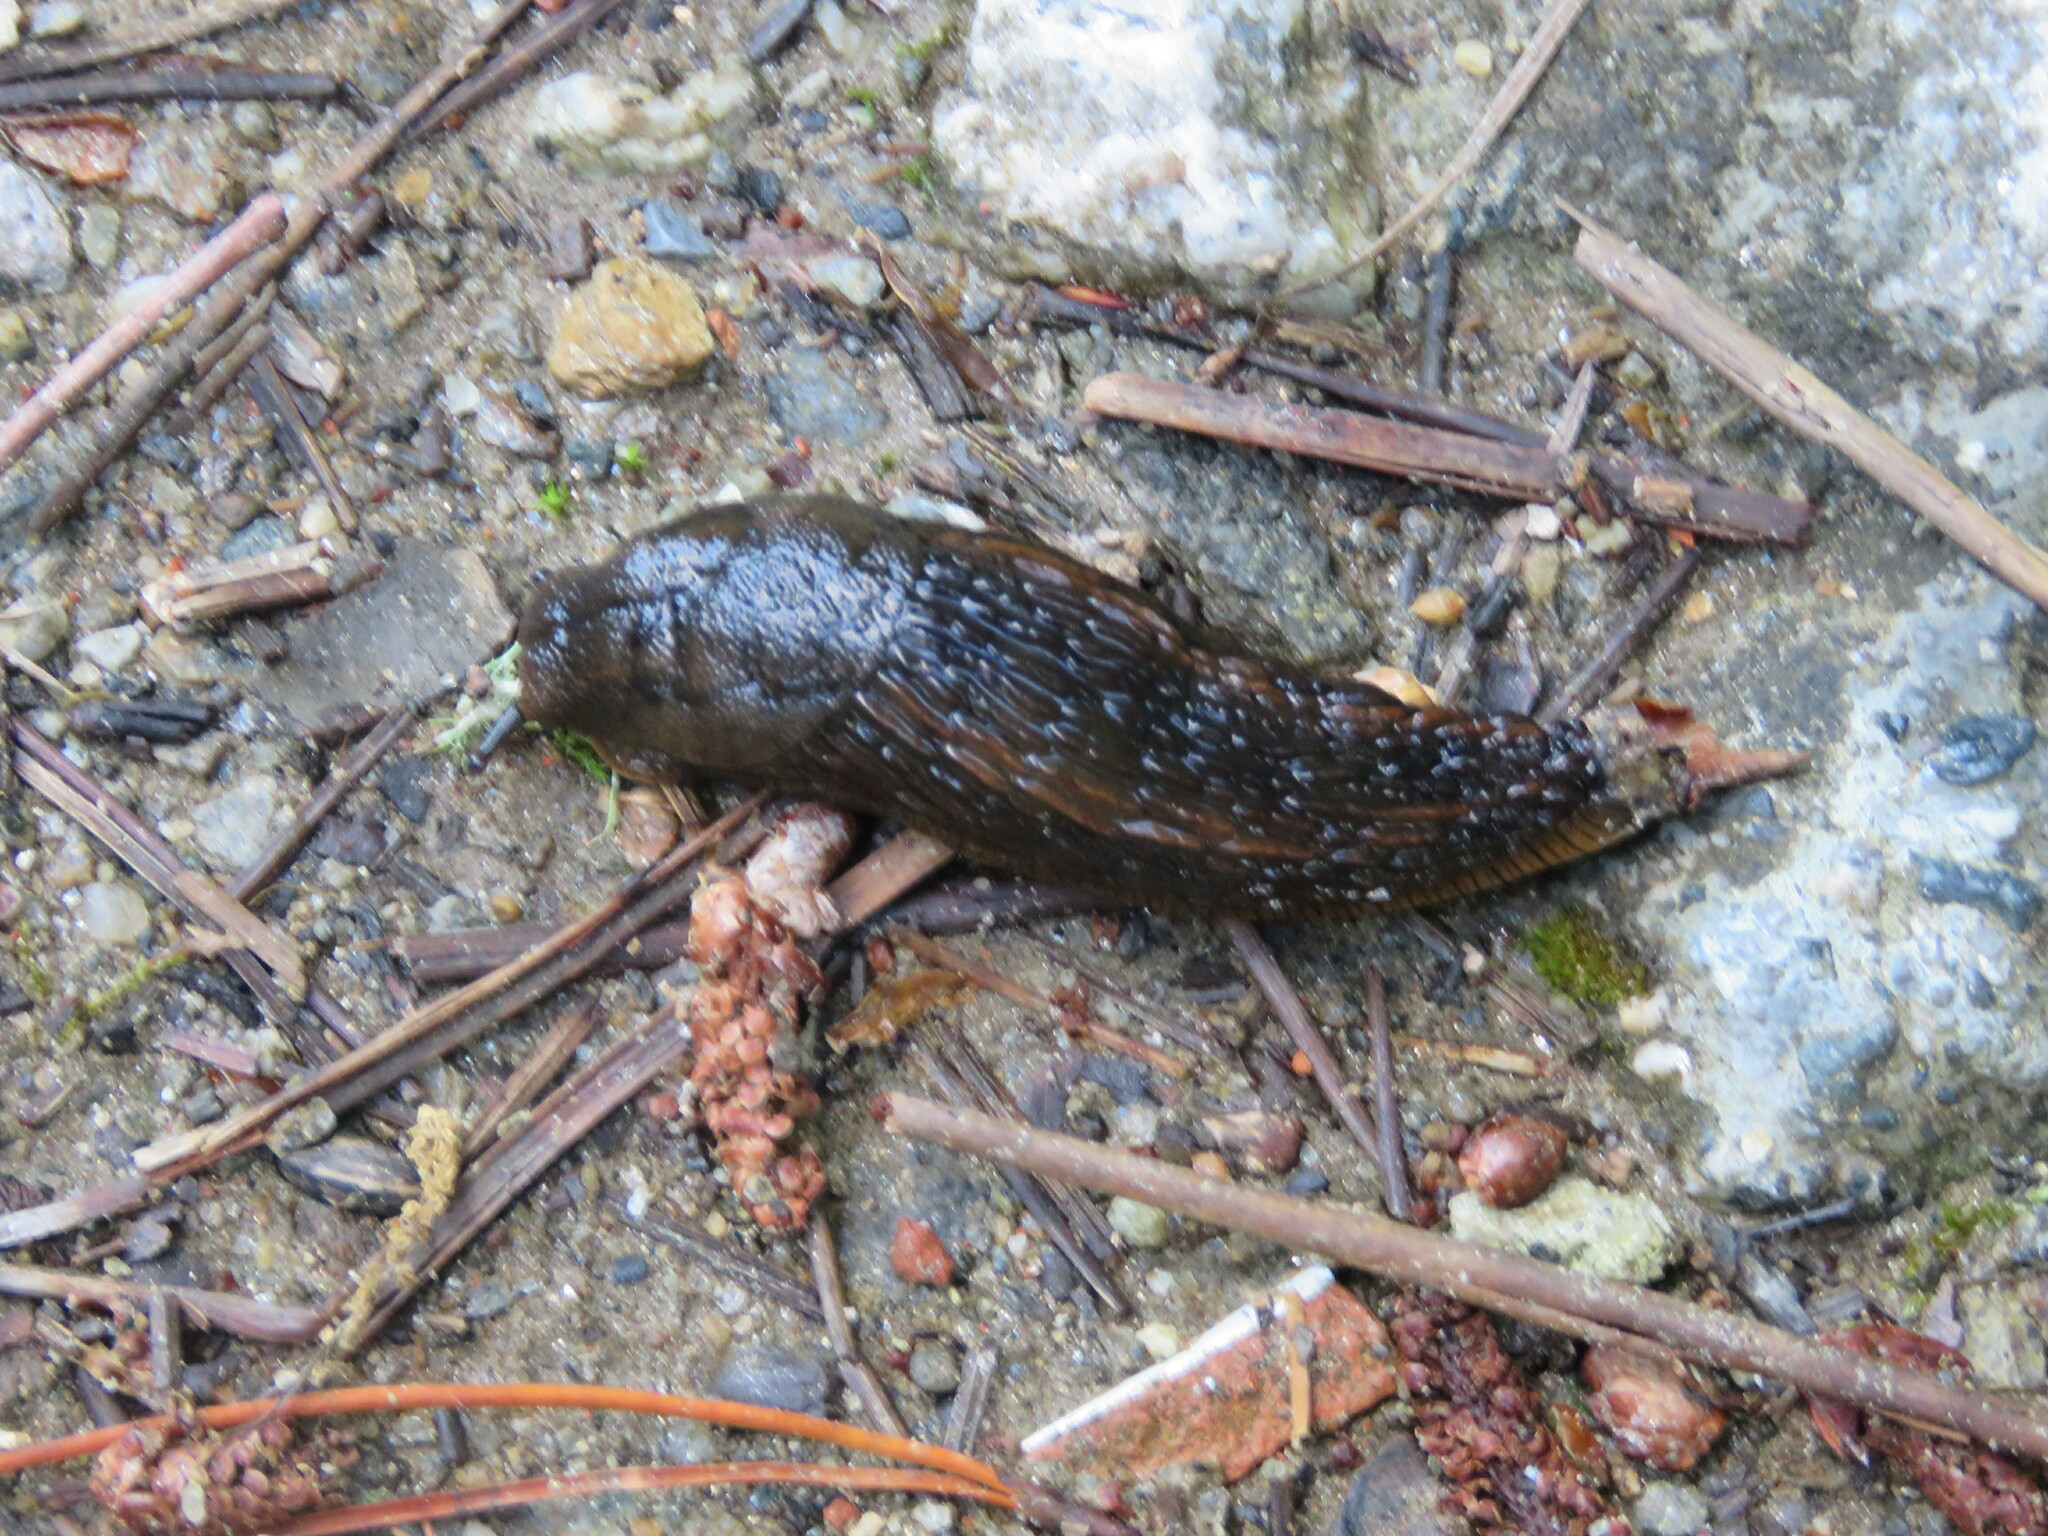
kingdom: Animalia
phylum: Mollusca
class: Gastropoda
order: Stylommatophora
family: Arionidae
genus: Arion
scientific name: Arion flagellus
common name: Durham slug
